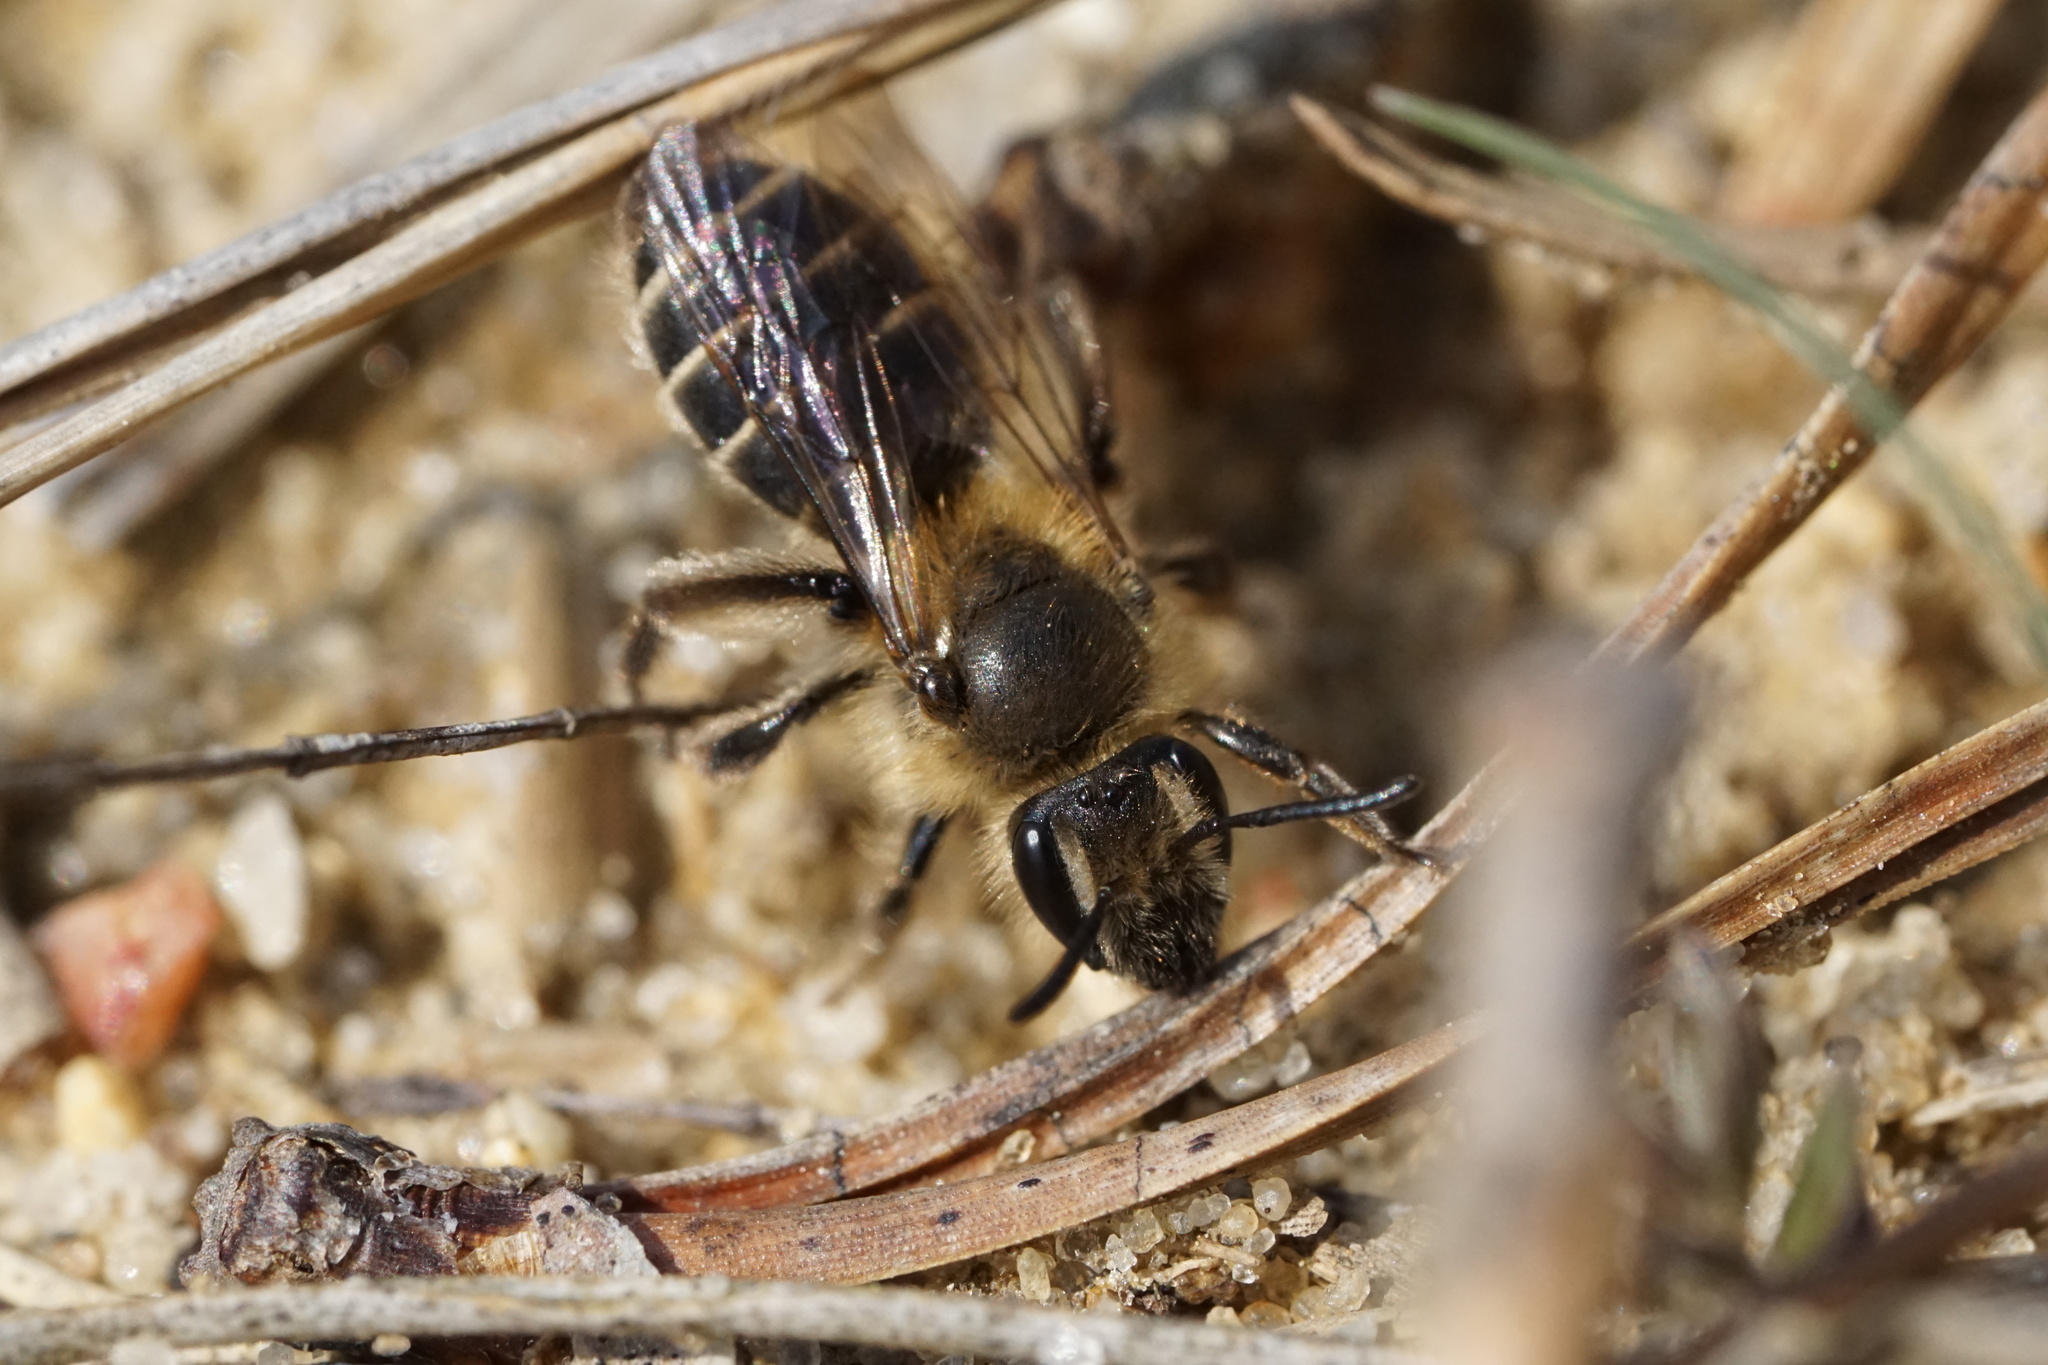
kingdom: Animalia
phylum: Arthropoda
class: Insecta
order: Hymenoptera
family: Andrenidae
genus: Andrena
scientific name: Andrena bradleyi
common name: Bradley's mining bee
